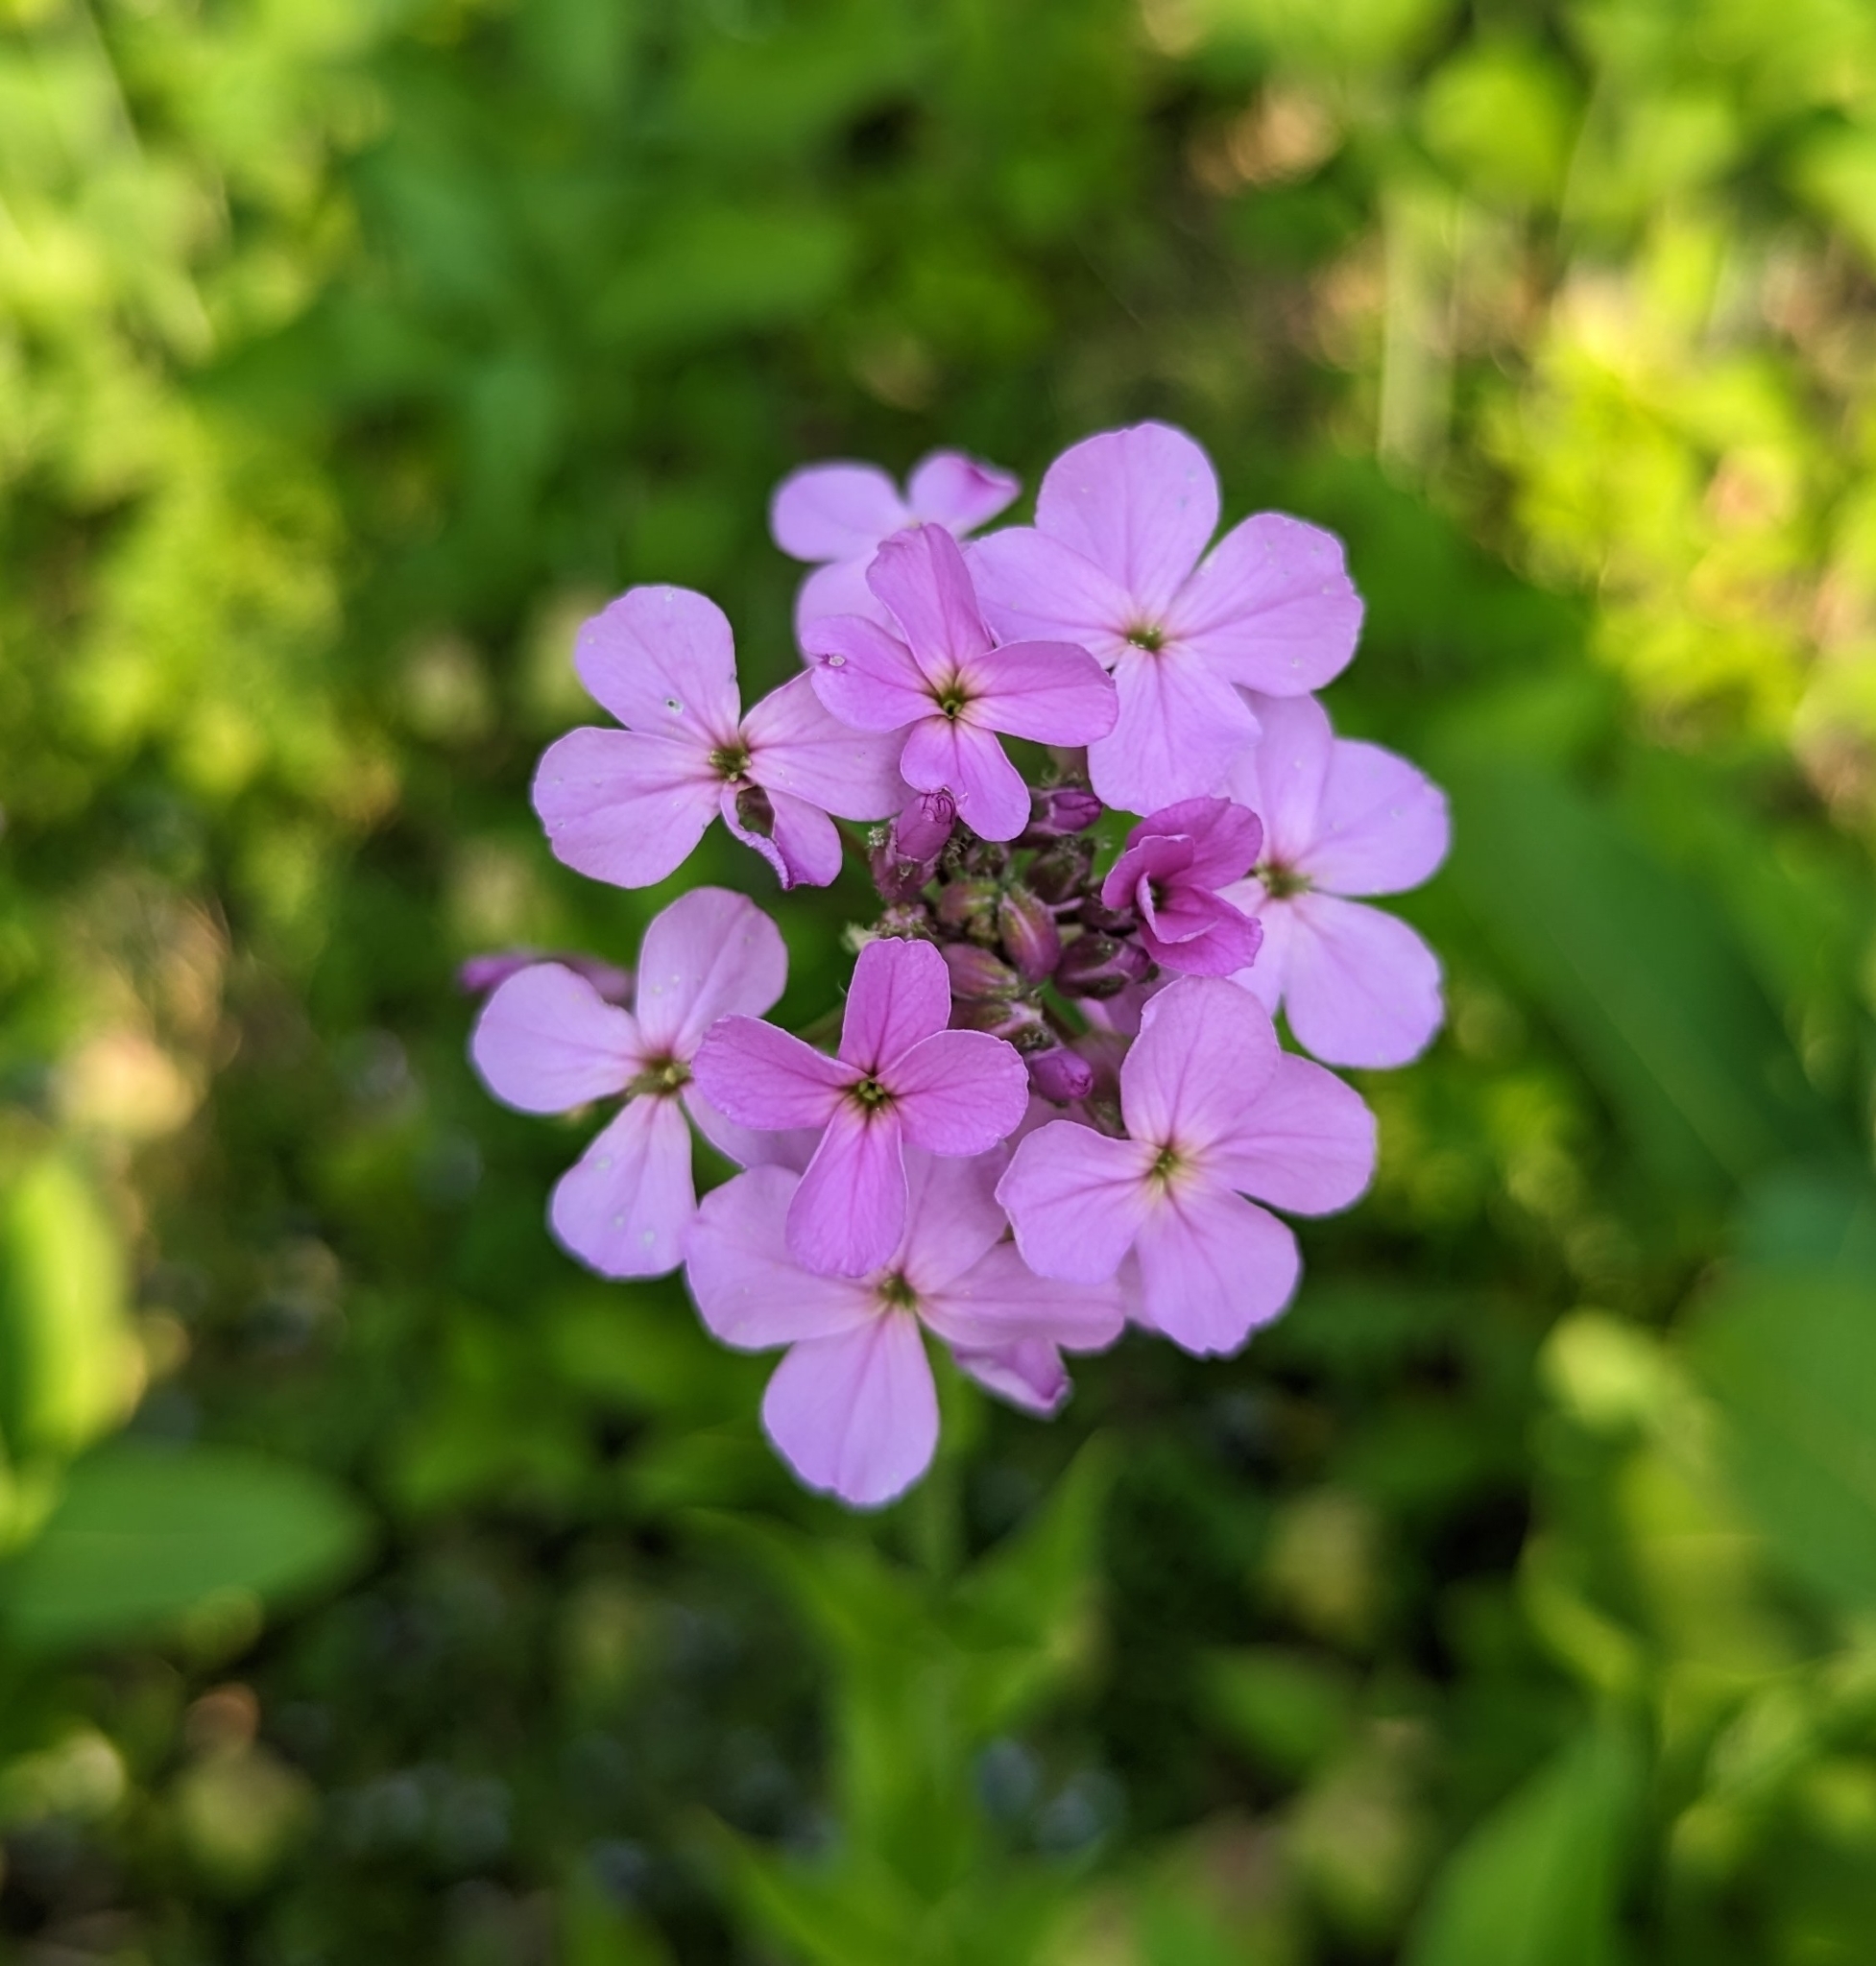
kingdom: Plantae
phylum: Tracheophyta
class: Magnoliopsida
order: Brassicales
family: Brassicaceae
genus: Hesperis
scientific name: Hesperis matronalis
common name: Dame's-violet
